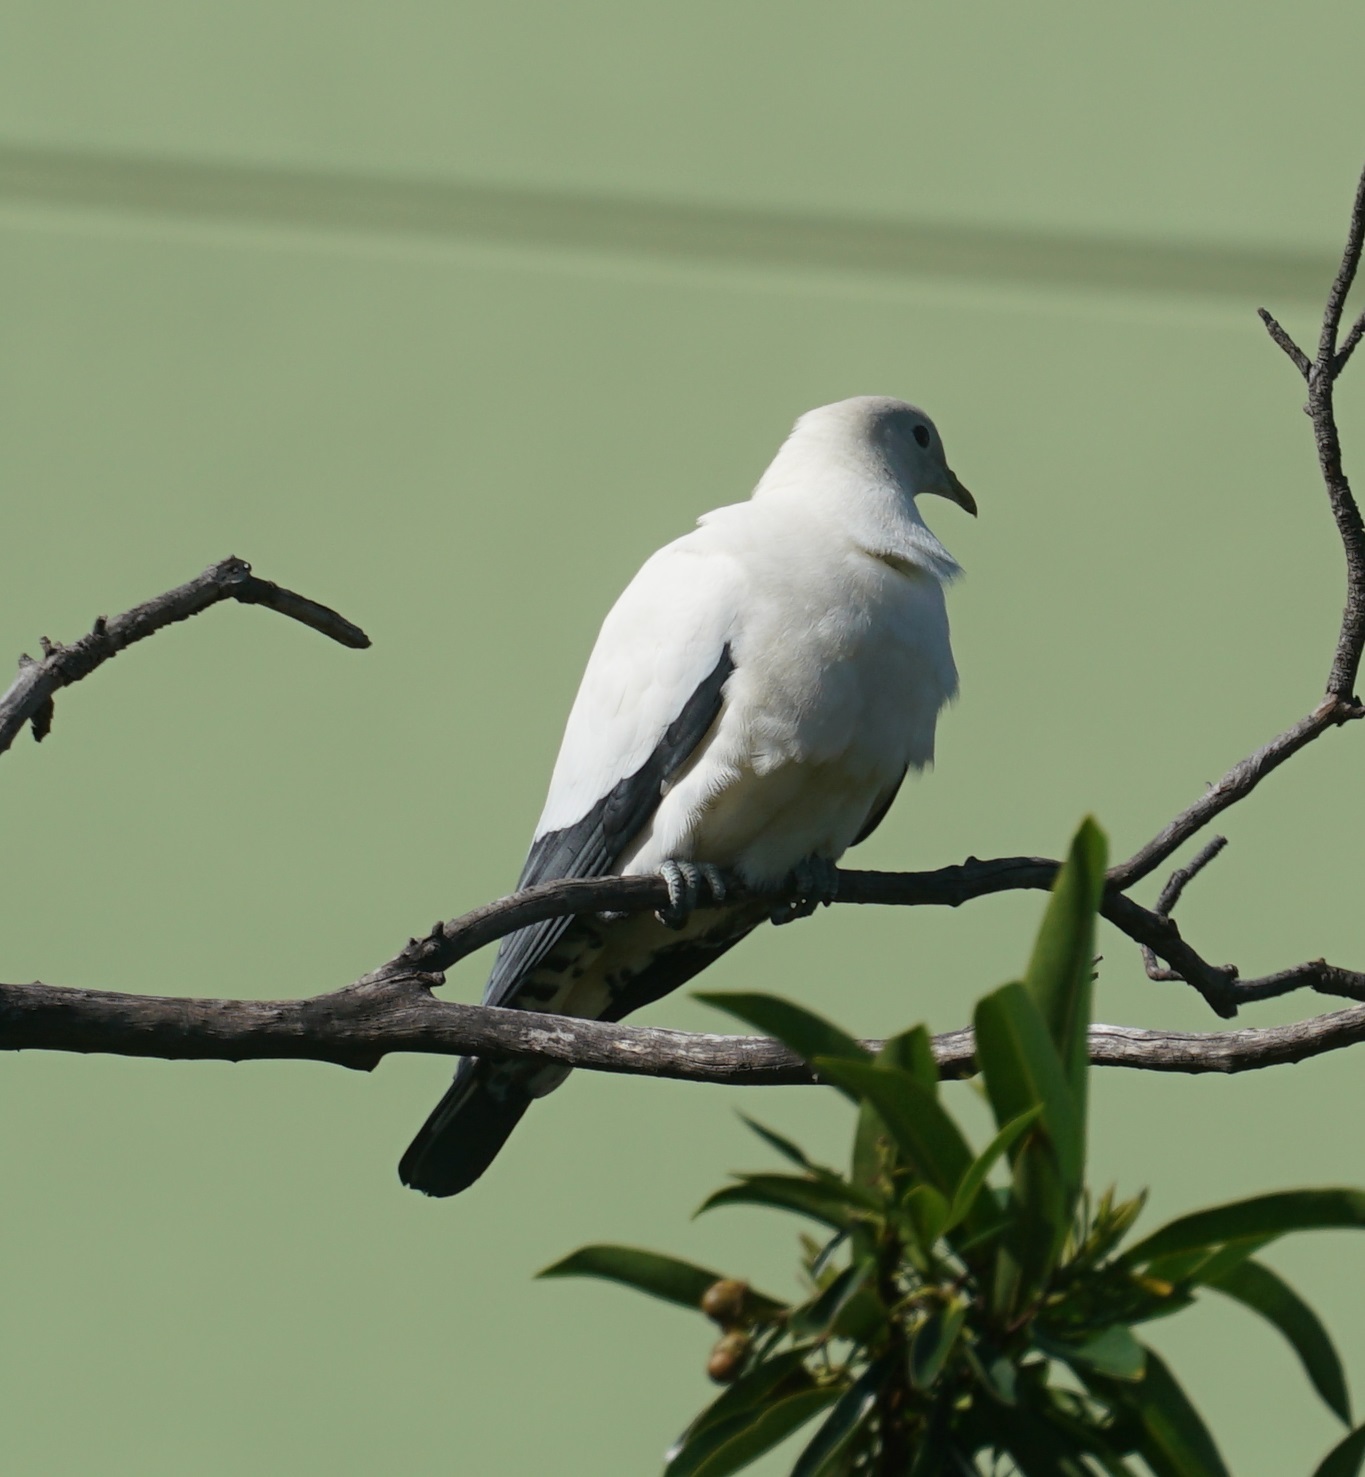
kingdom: Animalia
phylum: Chordata
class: Aves
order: Columbiformes
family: Columbidae
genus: Ducula
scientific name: Ducula spilorrhoa
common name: Torresian imperial pigeon
